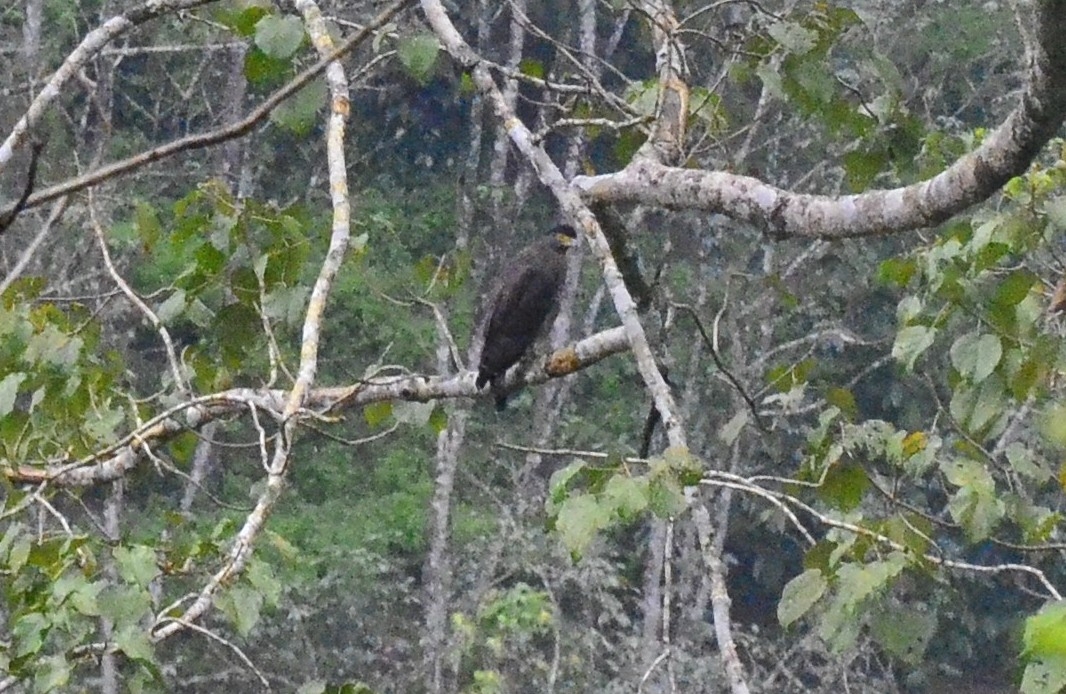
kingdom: Animalia
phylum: Chordata
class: Aves
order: Accipitriformes
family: Accipitridae
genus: Spilornis
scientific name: Spilornis cheela
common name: Crested serpent eagle
